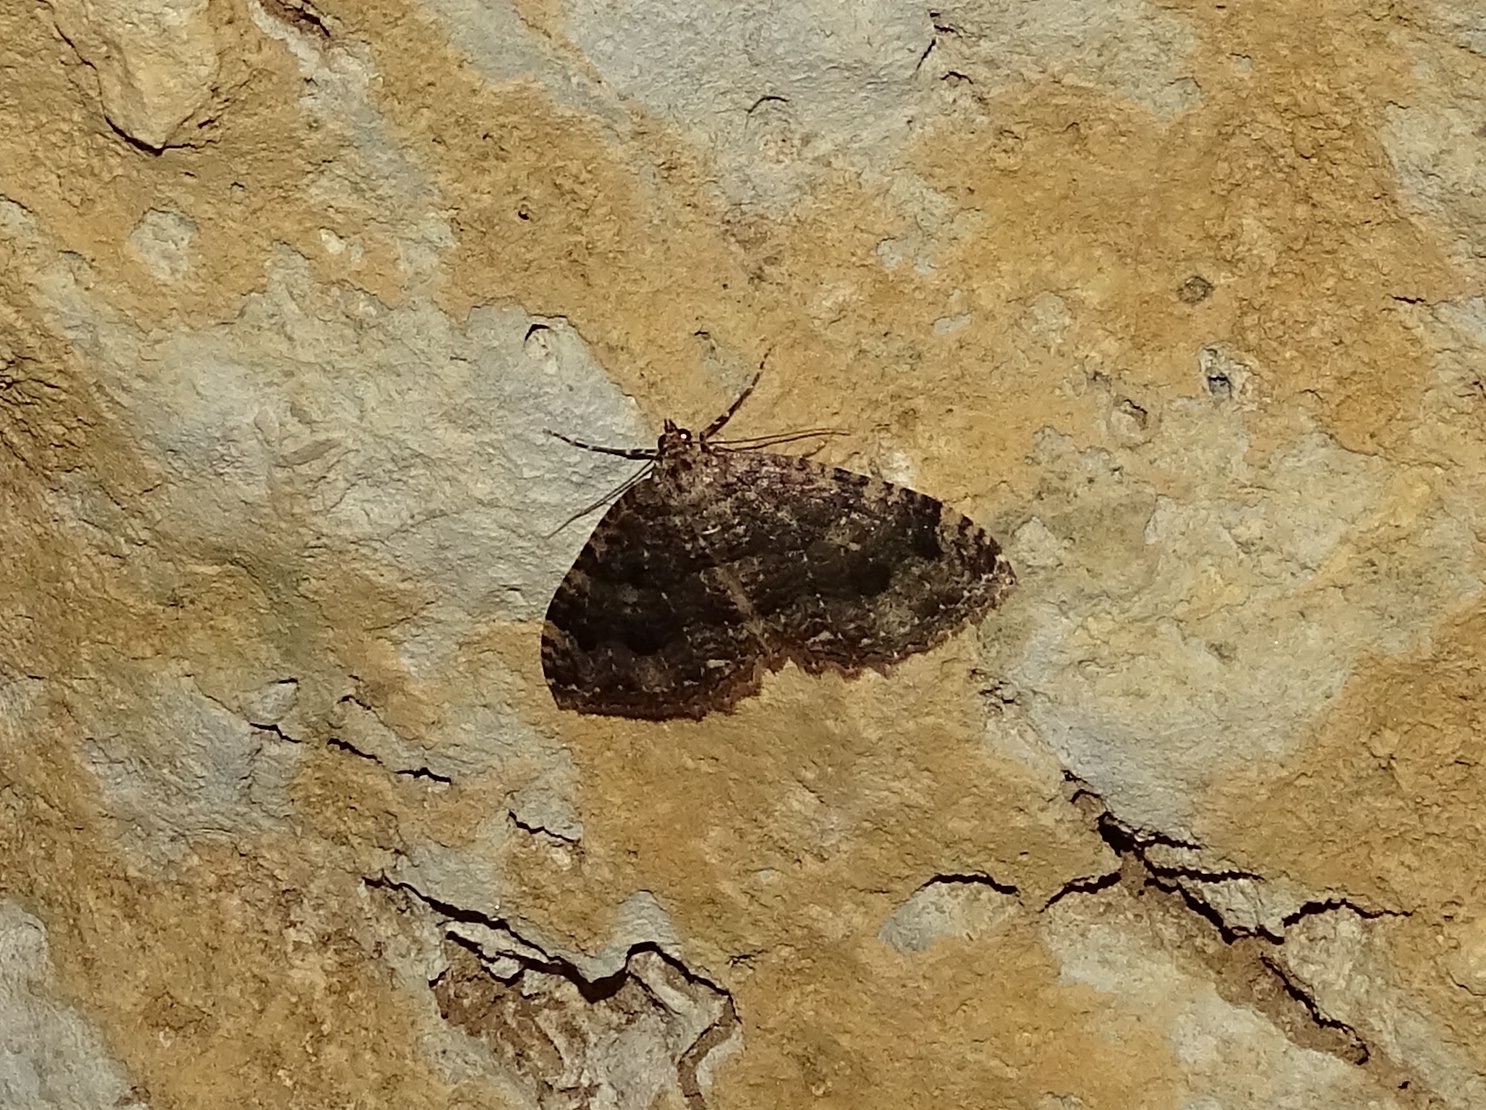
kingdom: Animalia
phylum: Arthropoda
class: Insecta
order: Lepidoptera
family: Geometridae
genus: Triphosa
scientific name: Triphosa dubitata
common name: Tissue
